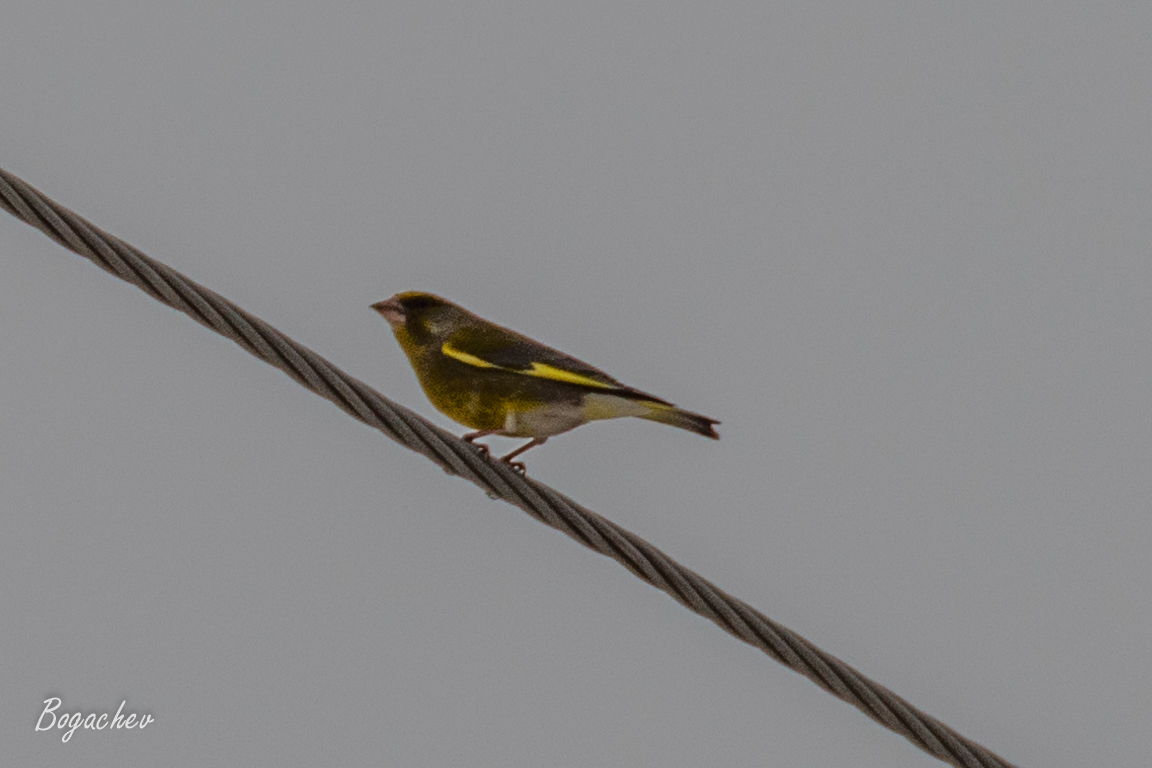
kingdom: Plantae
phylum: Tracheophyta
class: Liliopsida
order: Poales
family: Poaceae
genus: Chloris
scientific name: Chloris chloris
